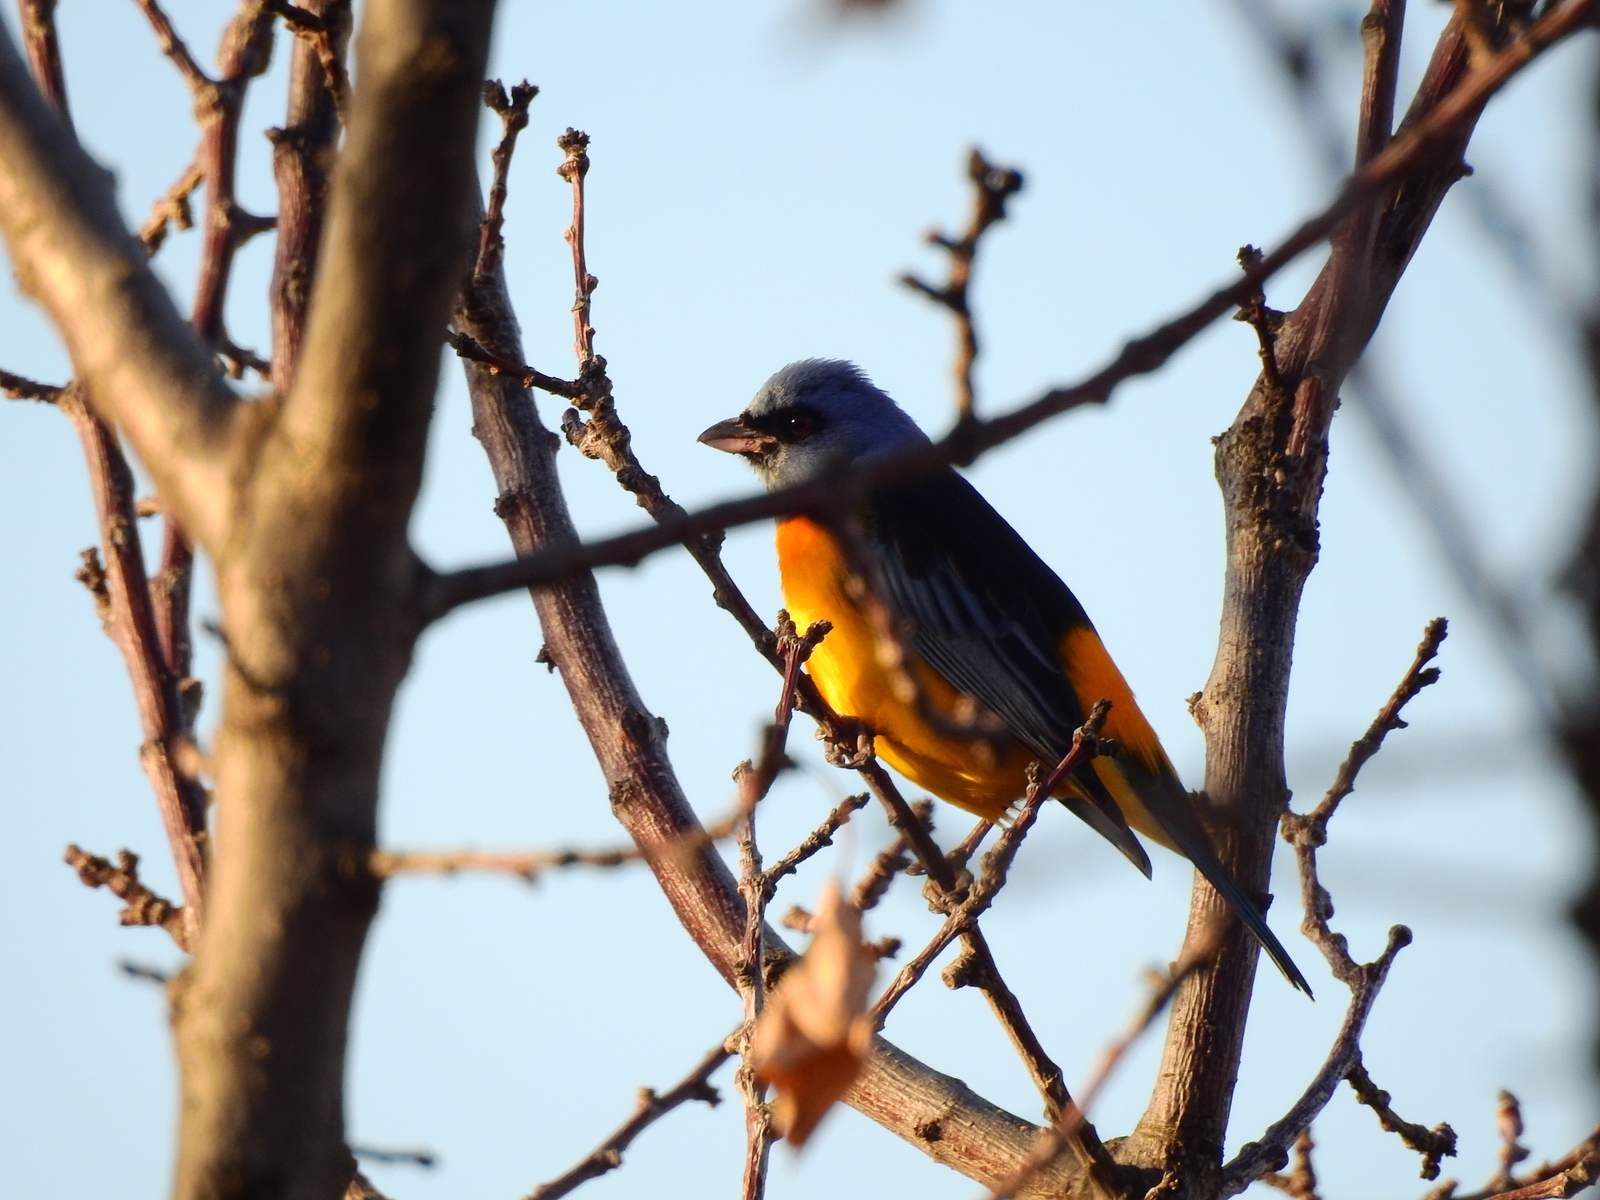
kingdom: Animalia
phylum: Chordata
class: Aves
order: Passeriformes
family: Thraupidae
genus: Rauenia
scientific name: Rauenia bonariensis
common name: Blue-and-yellow tanager
